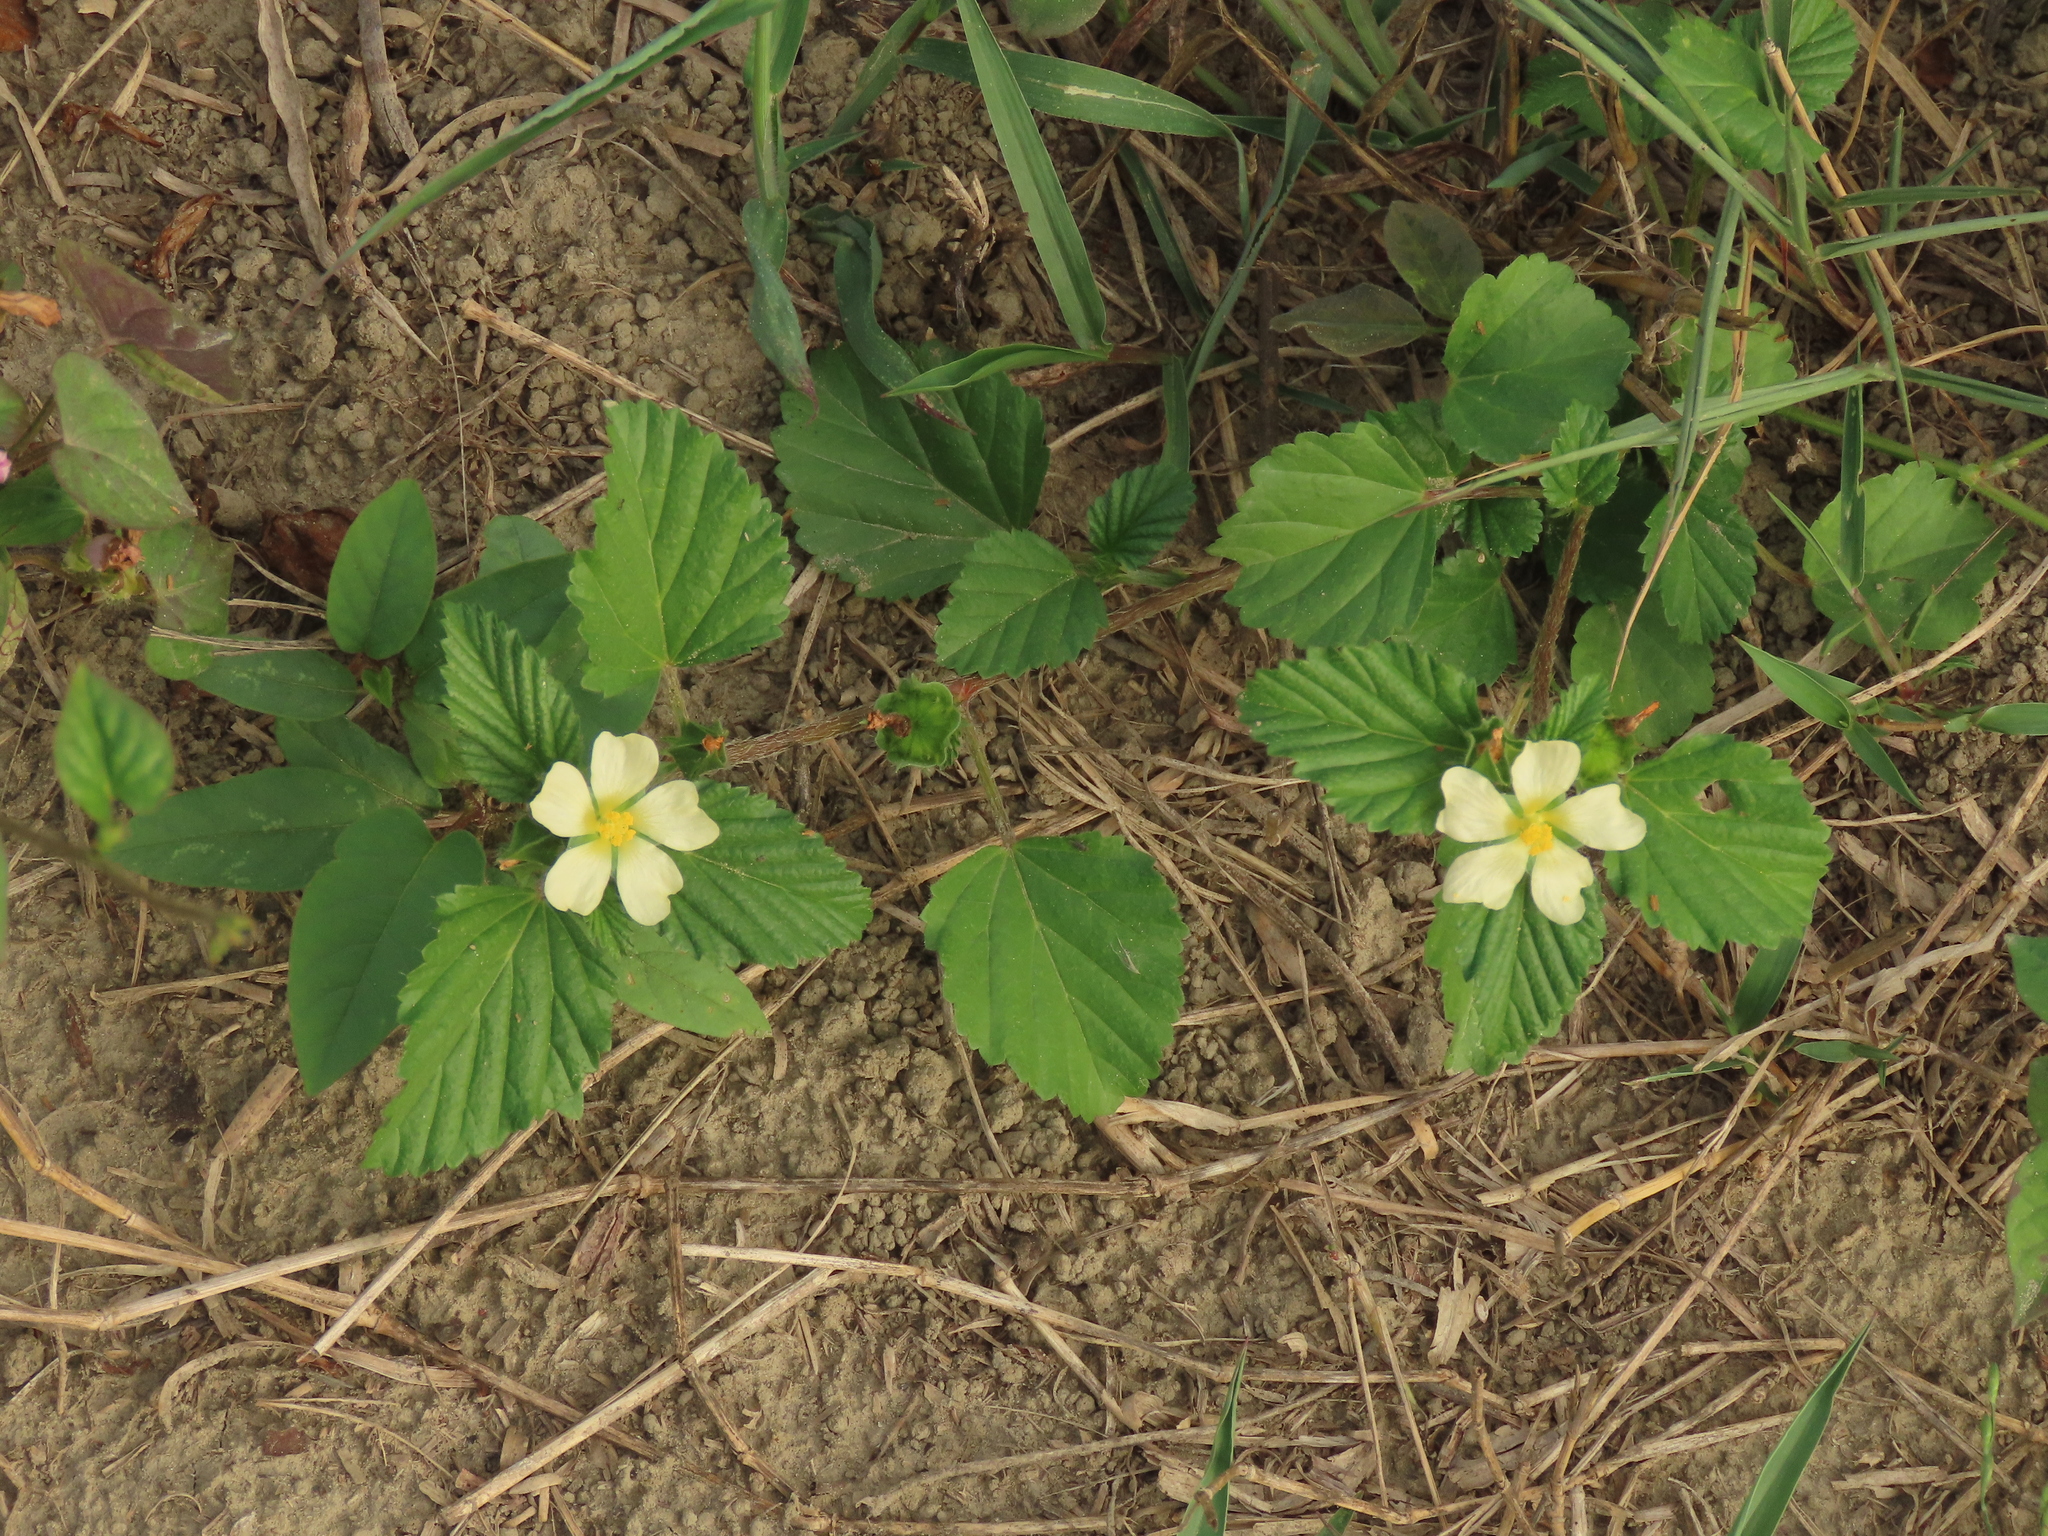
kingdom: Plantae
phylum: Tracheophyta
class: Magnoliopsida
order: Malvales
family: Malvaceae
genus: Malvastrum
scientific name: Malvastrum coromandelianum
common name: Threelobe false mallow
